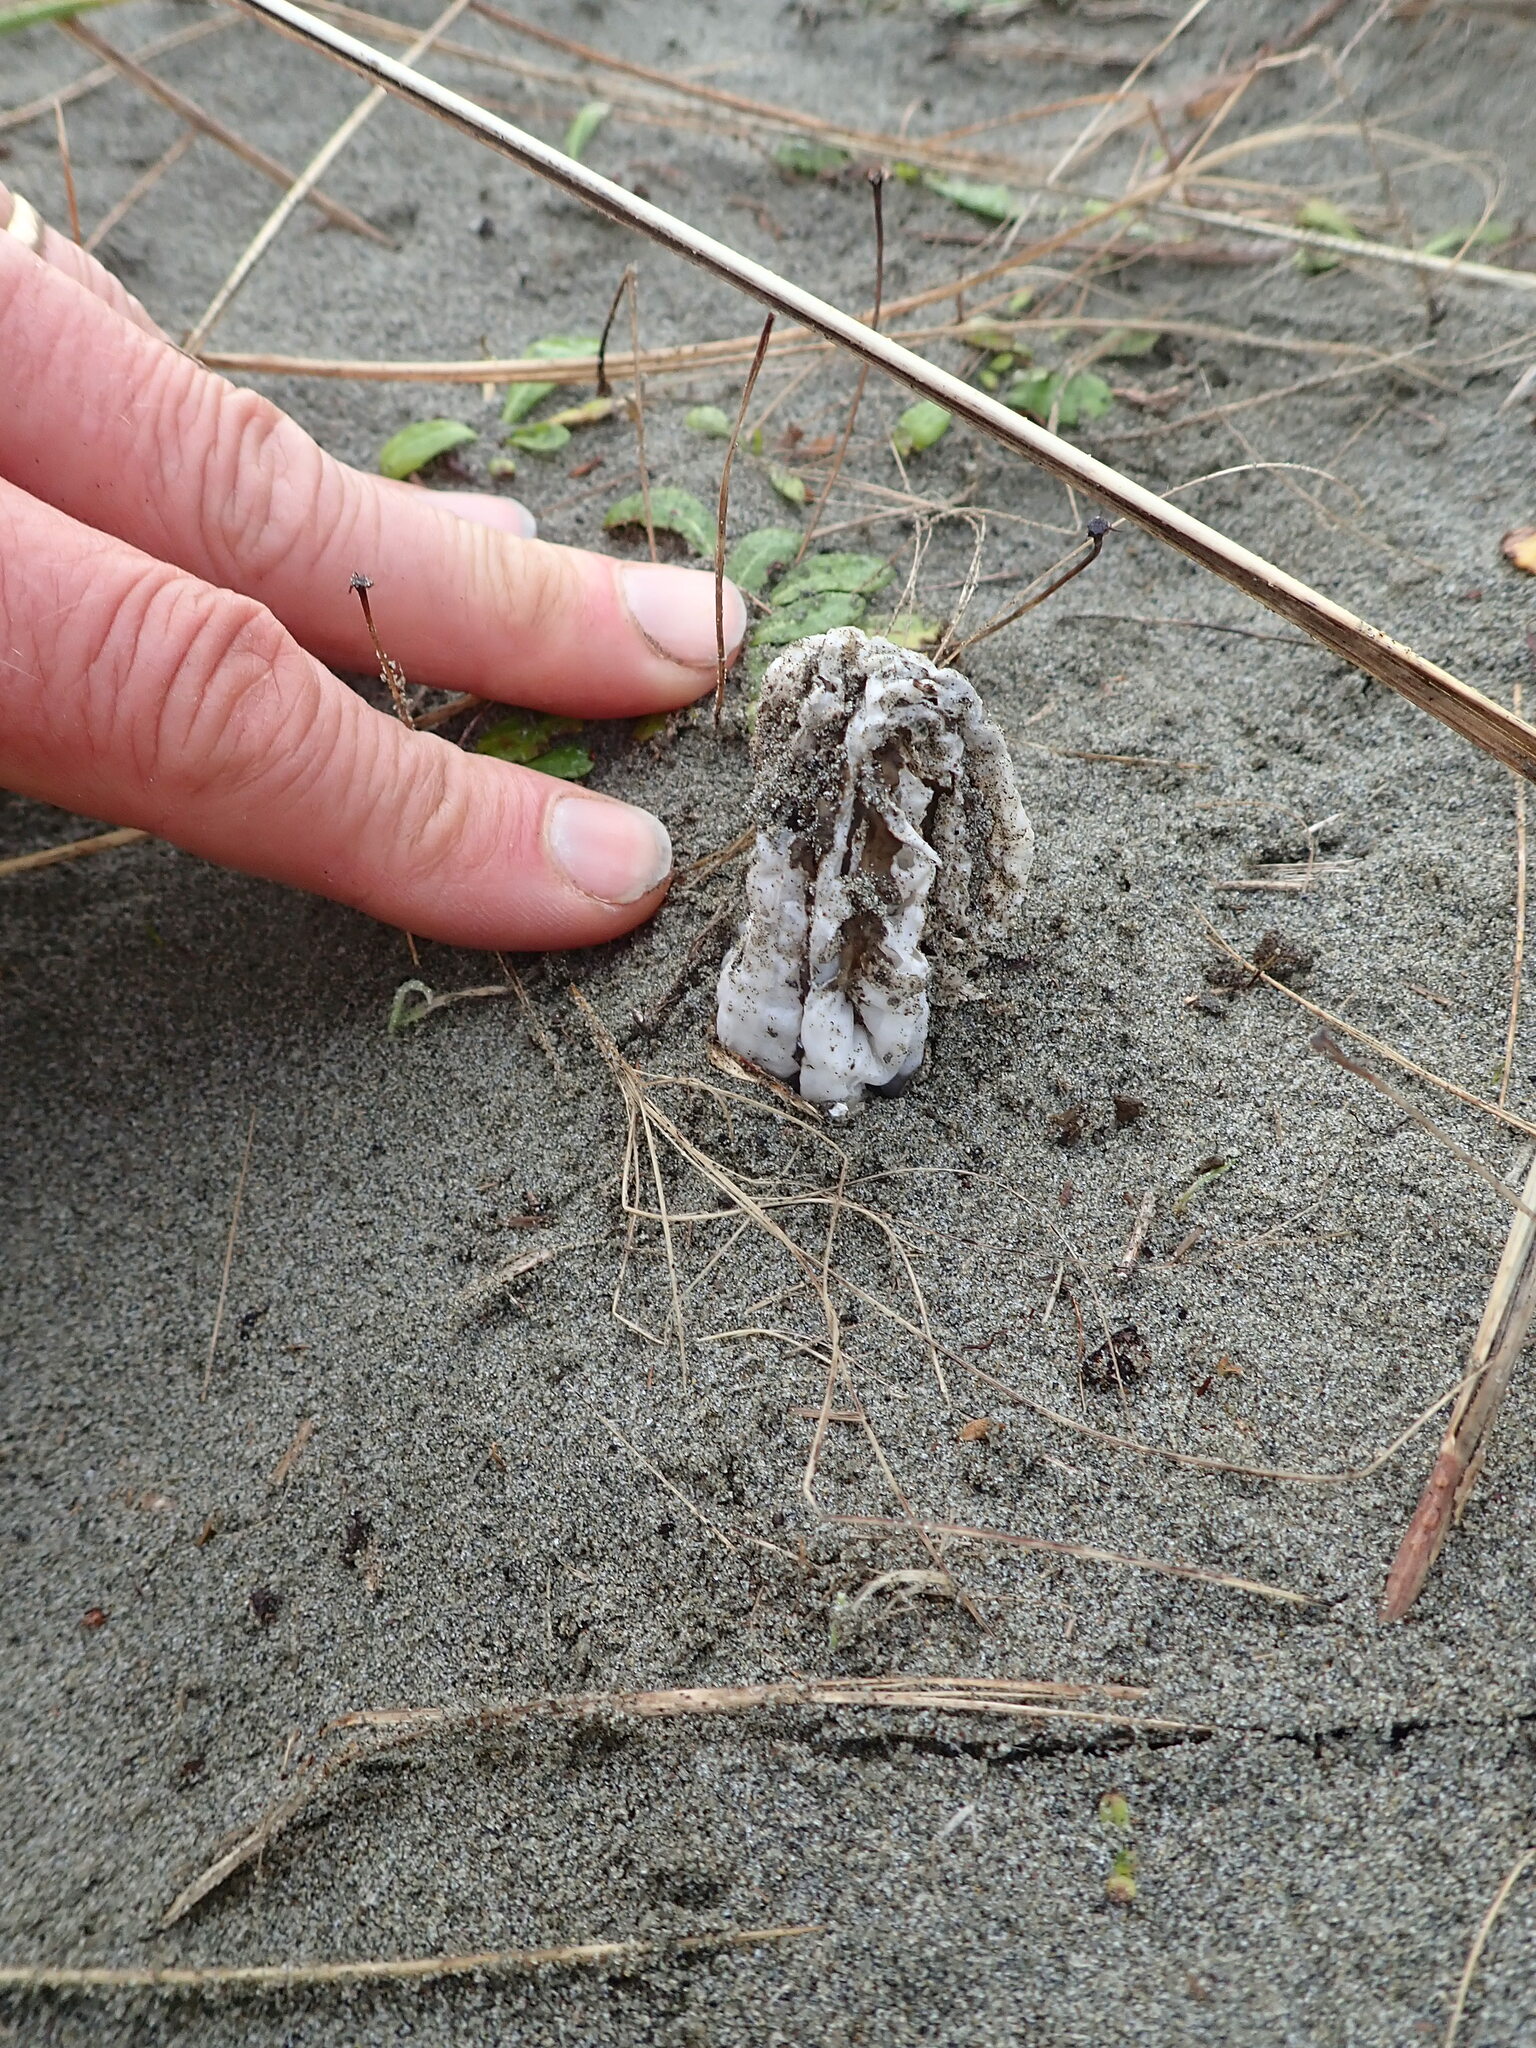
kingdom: Fungi
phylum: Basidiomycota
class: Agaricomycetes
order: Phallales
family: Phallaceae
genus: Ileodictyon
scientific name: Ileodictyon cibarium
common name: Basket fungus
